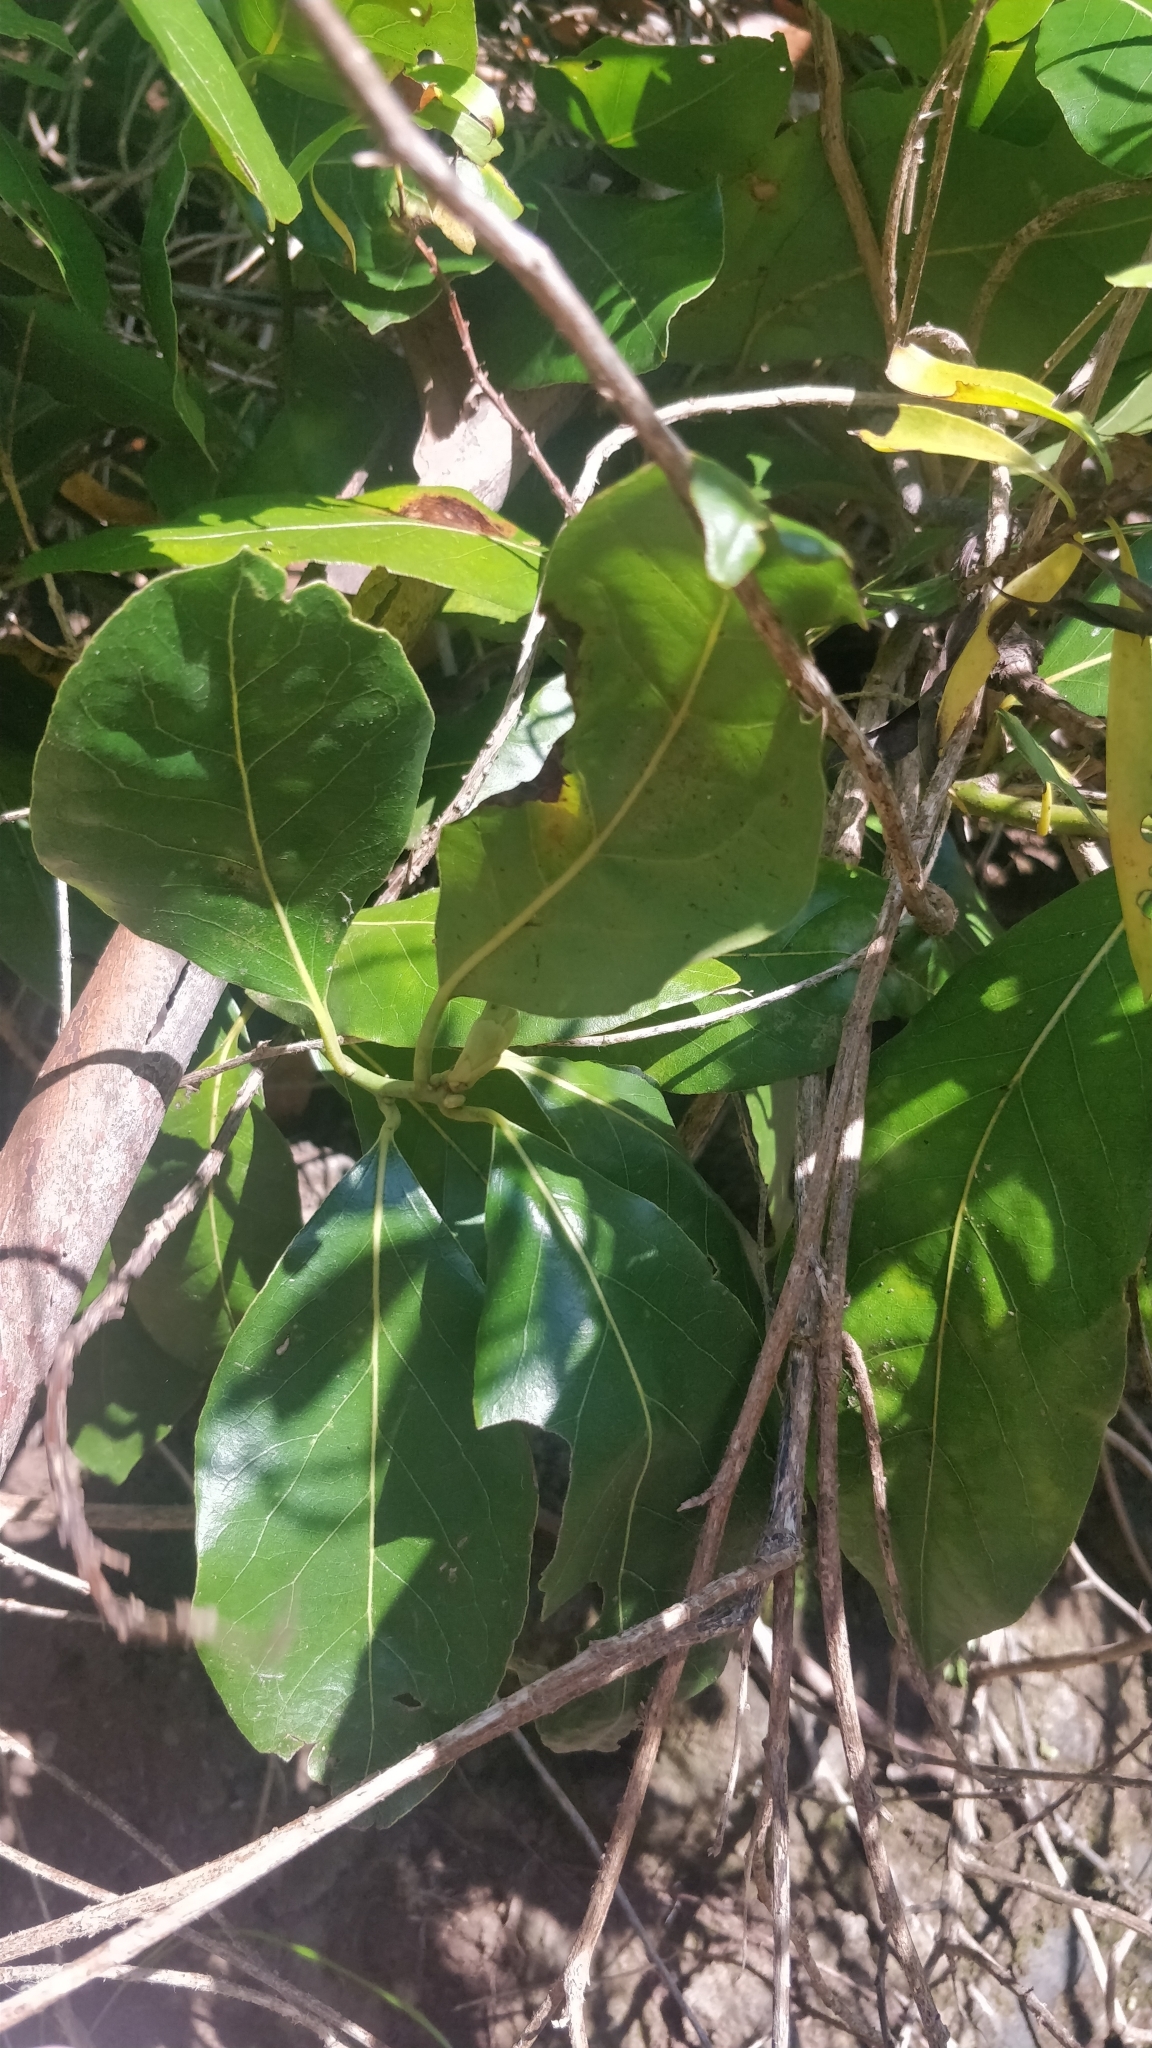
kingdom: Plantae
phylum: Tracheophyta
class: Magnoliopsida
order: Laurales
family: Lauraceae
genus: Laurus
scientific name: Laurus novocanariensis
